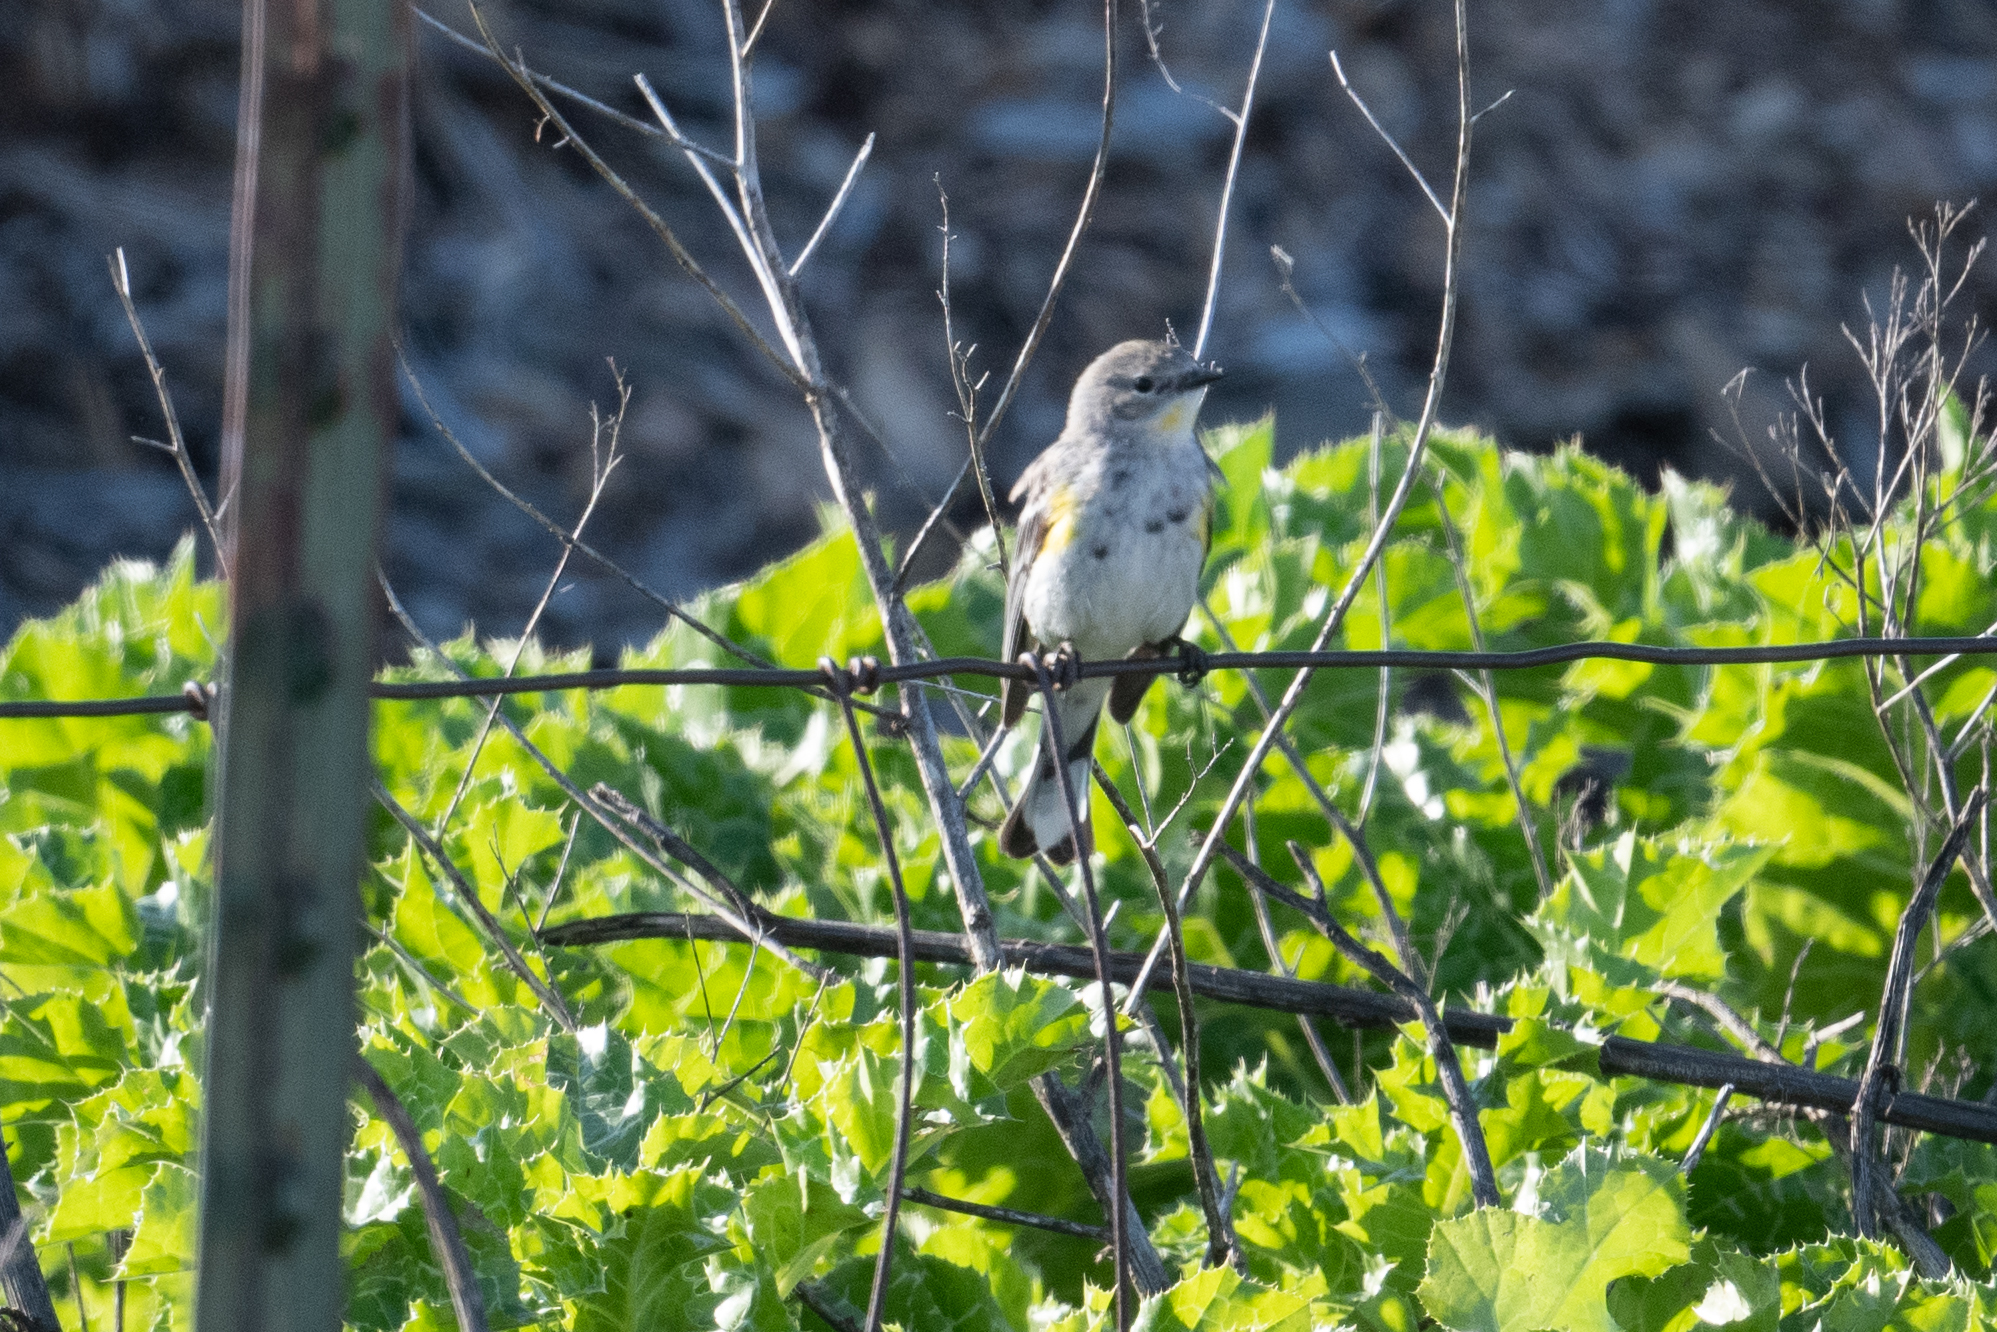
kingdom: Animalia
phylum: Chordata
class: Aves
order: Passeriformes
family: Parulidae
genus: Setophaga
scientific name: Setophaga coronata
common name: Myrtle warbler
